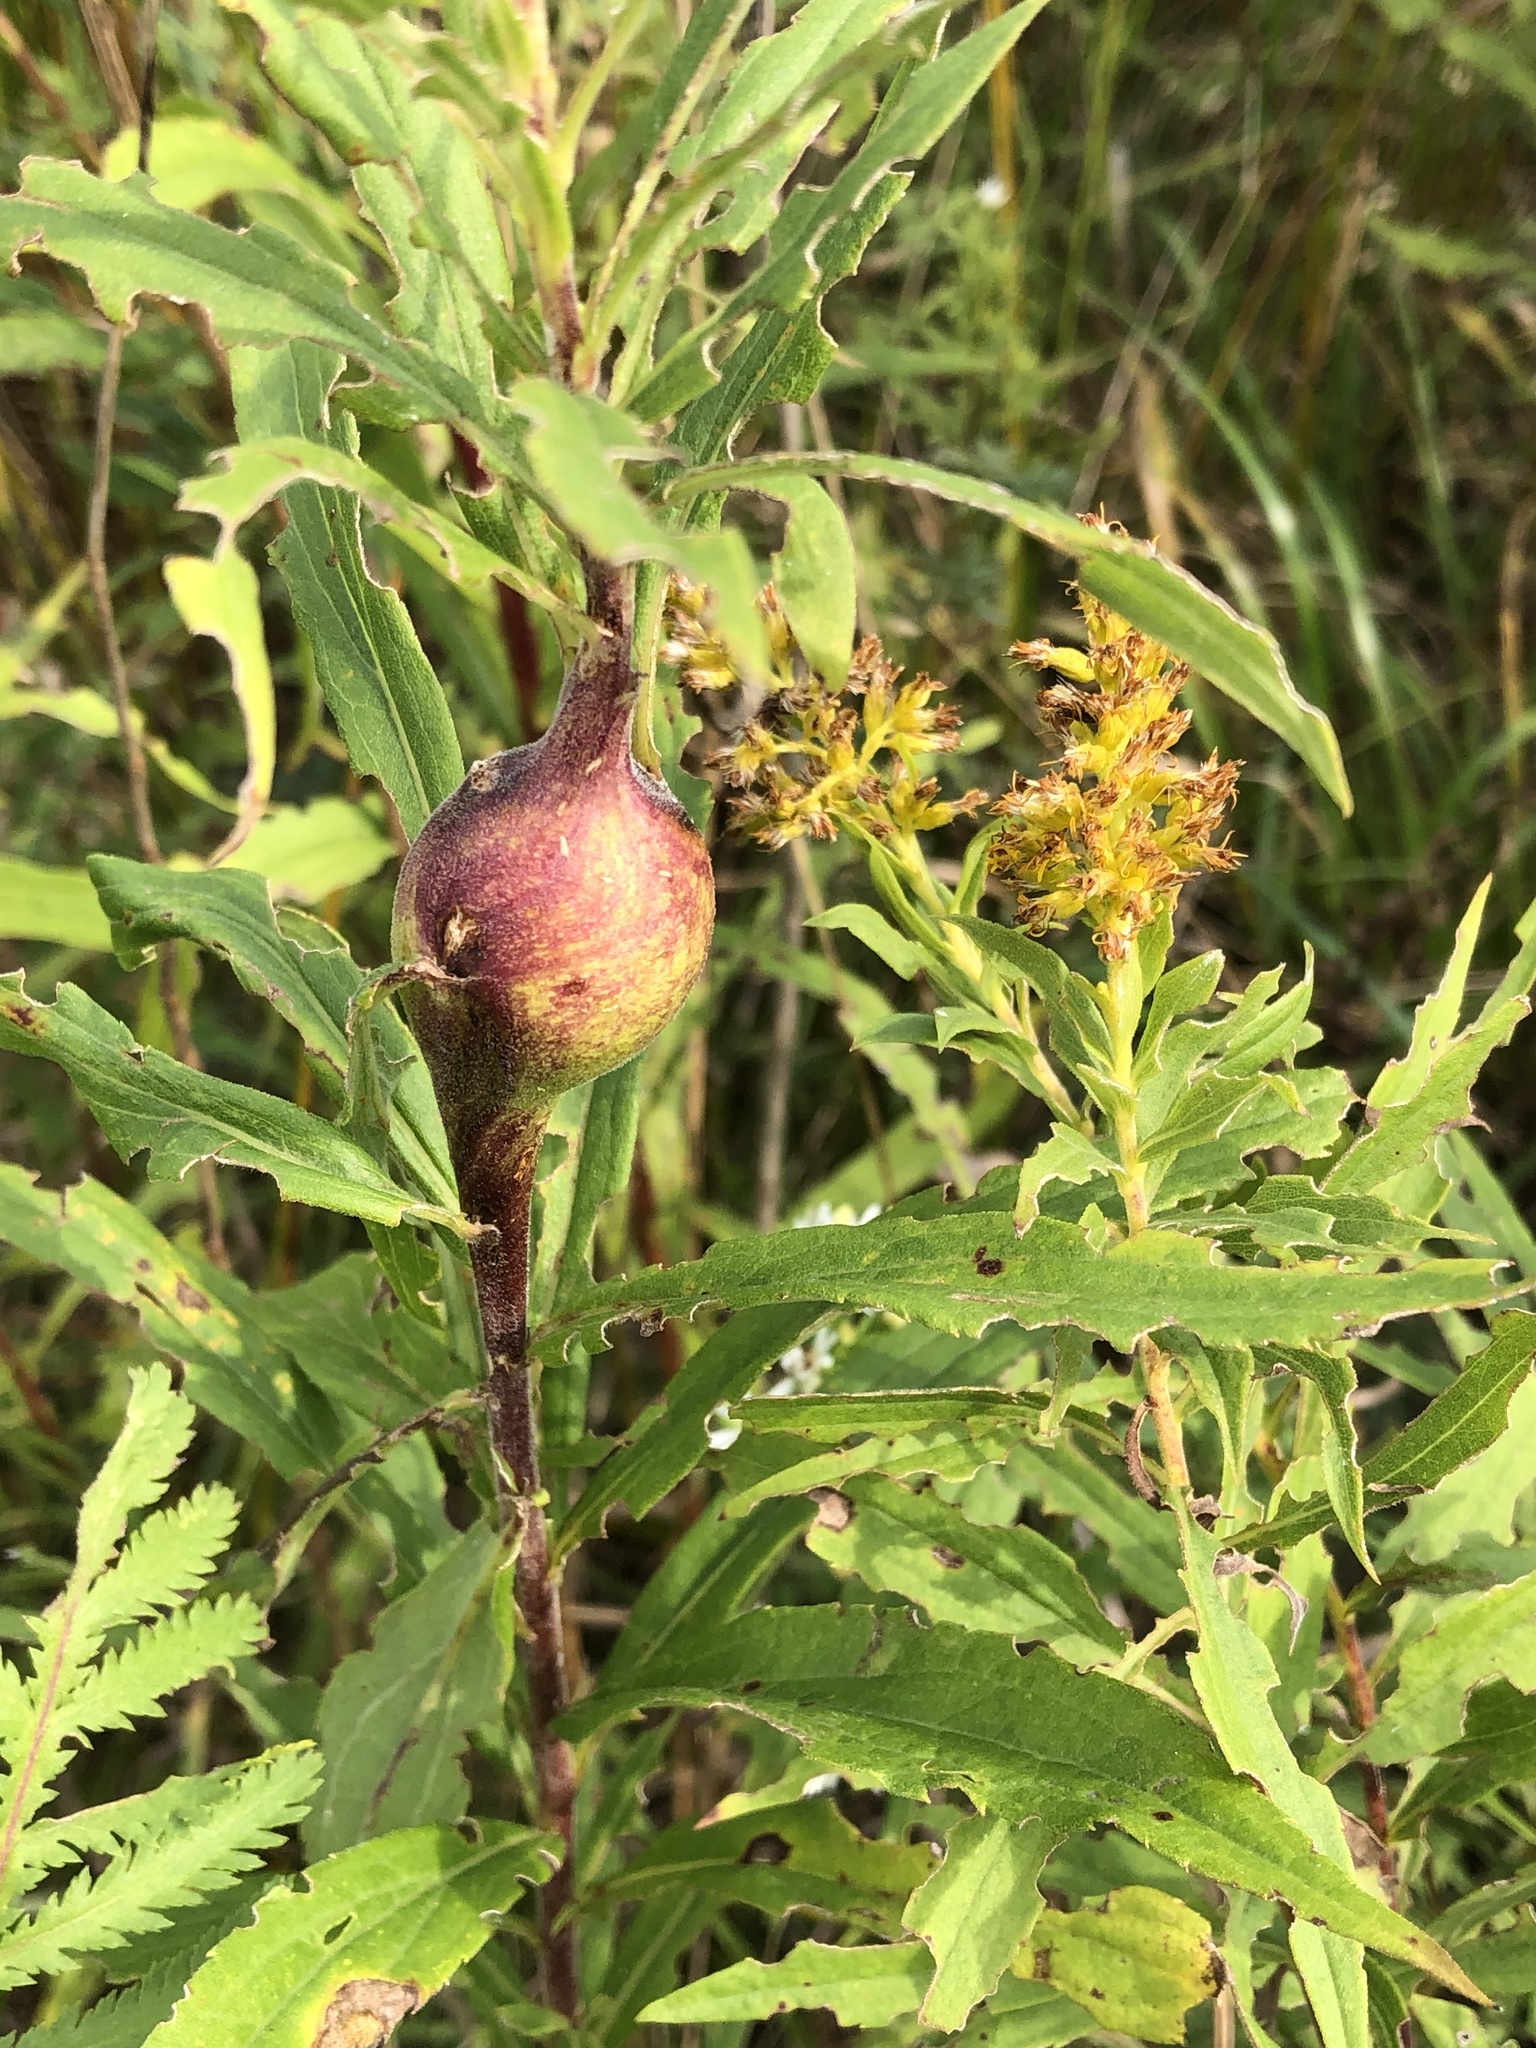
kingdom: Animalia
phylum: Arthropoda
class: Insecta
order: Diptera
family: Tephritidae
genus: Eurosta
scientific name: Eurosta solidaginis
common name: Goldenrod gall fly
